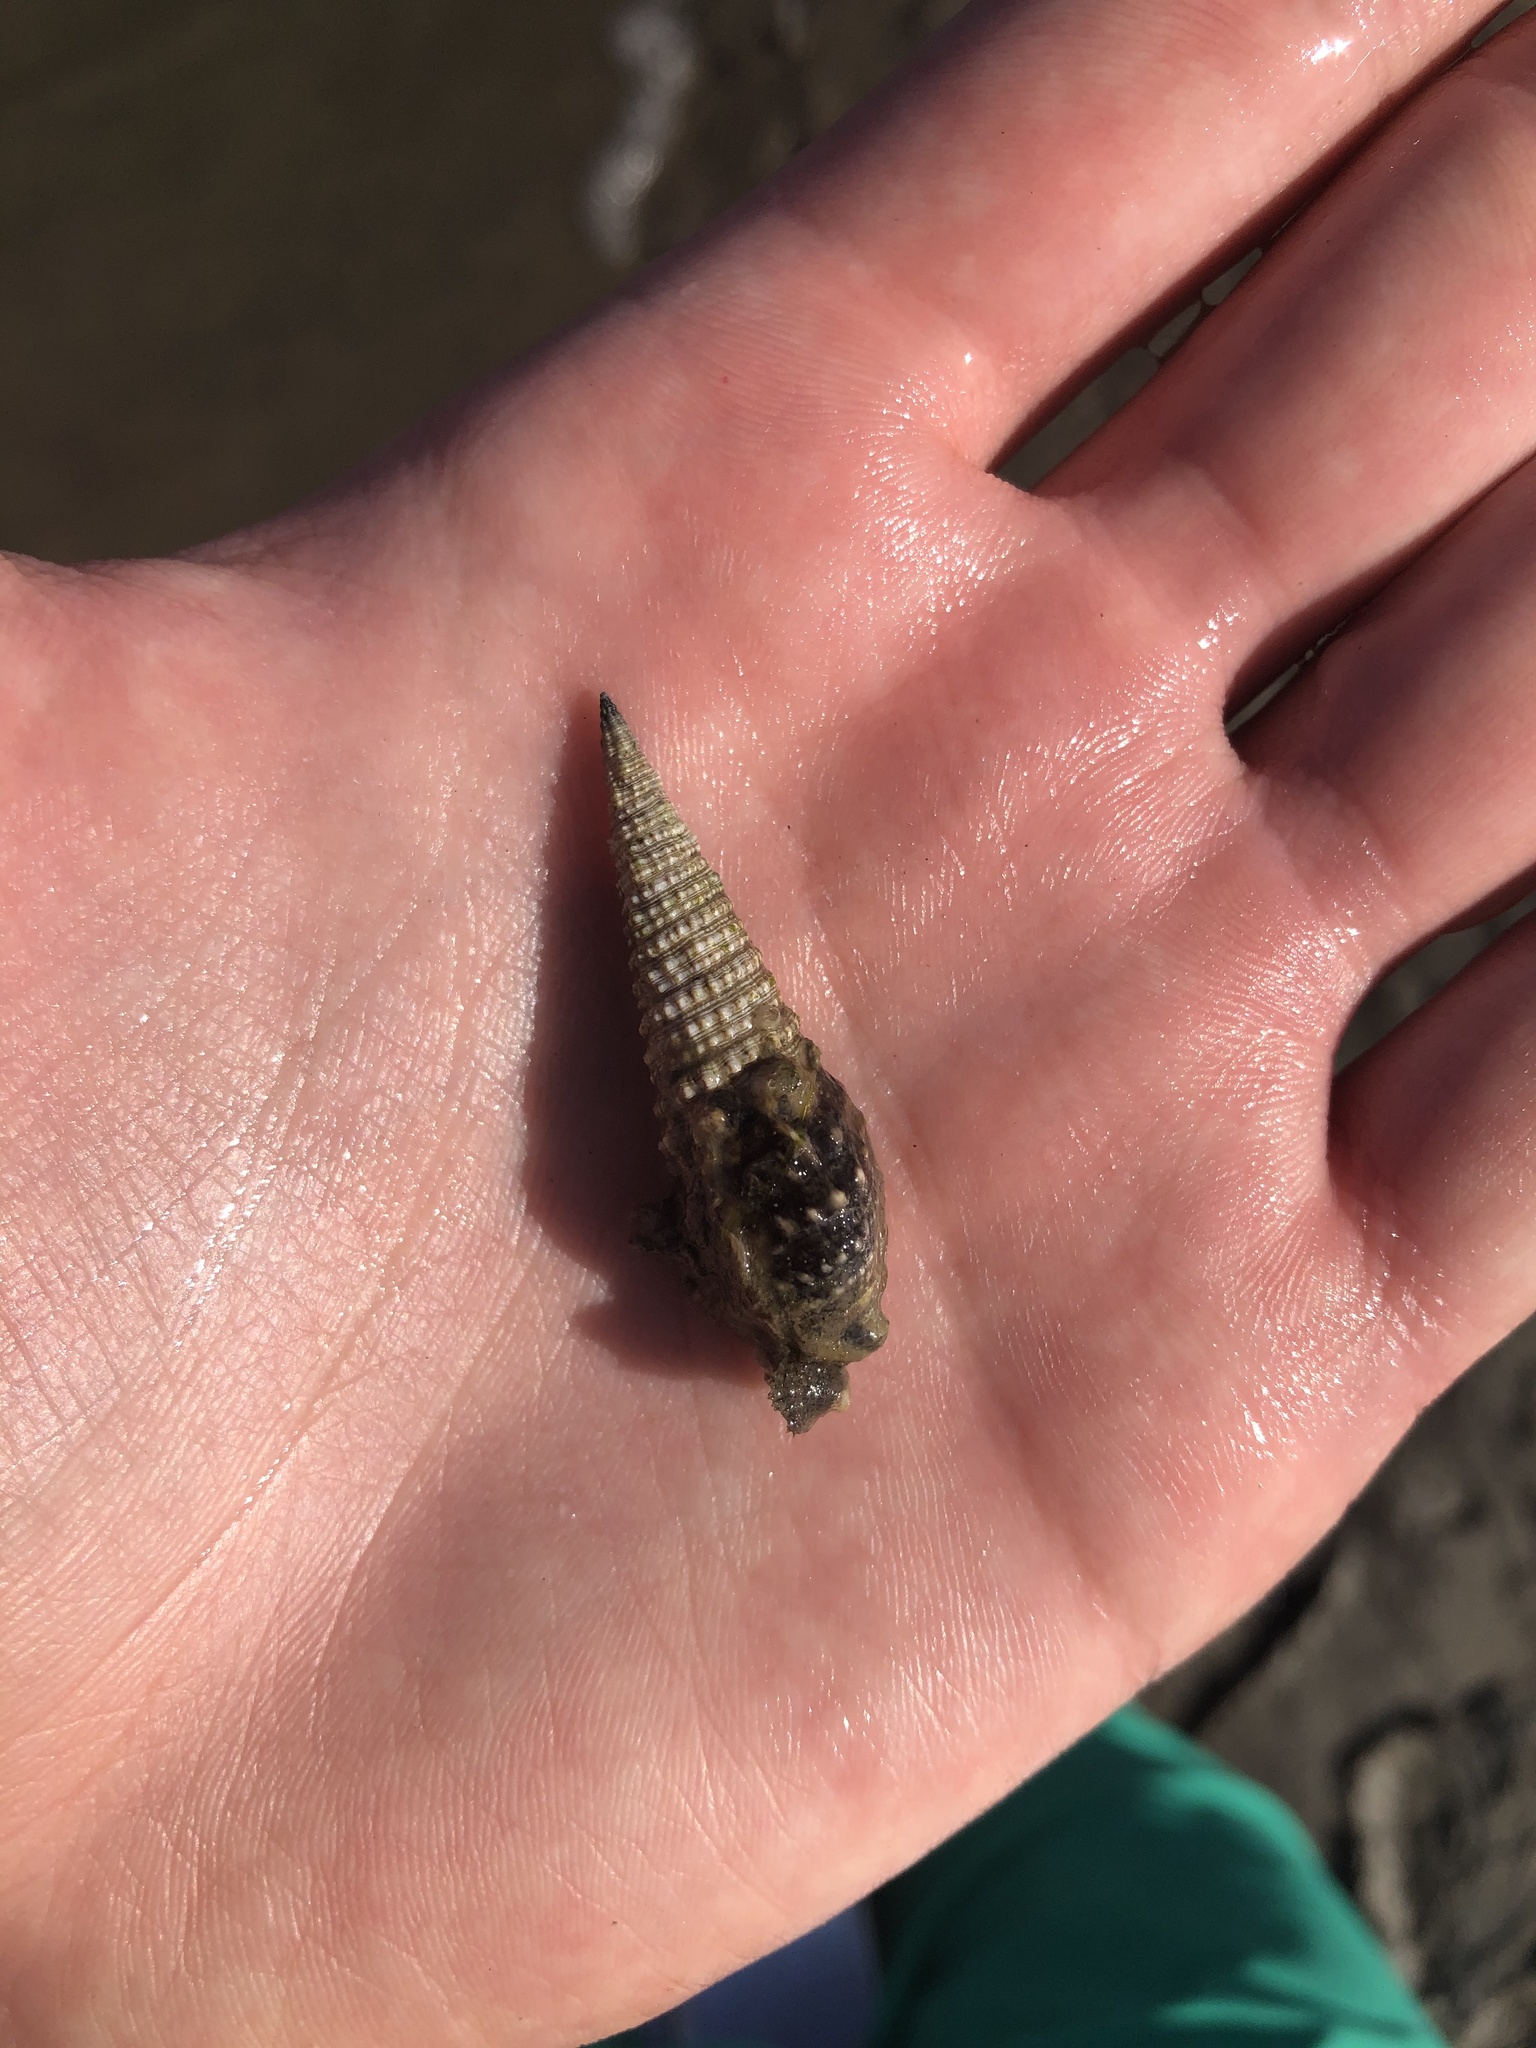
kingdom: Animalia
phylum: Mollusca
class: Gastropoda
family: Cerithiidae
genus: Cerithium
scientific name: Cerithium atratum
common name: Dark cerith
